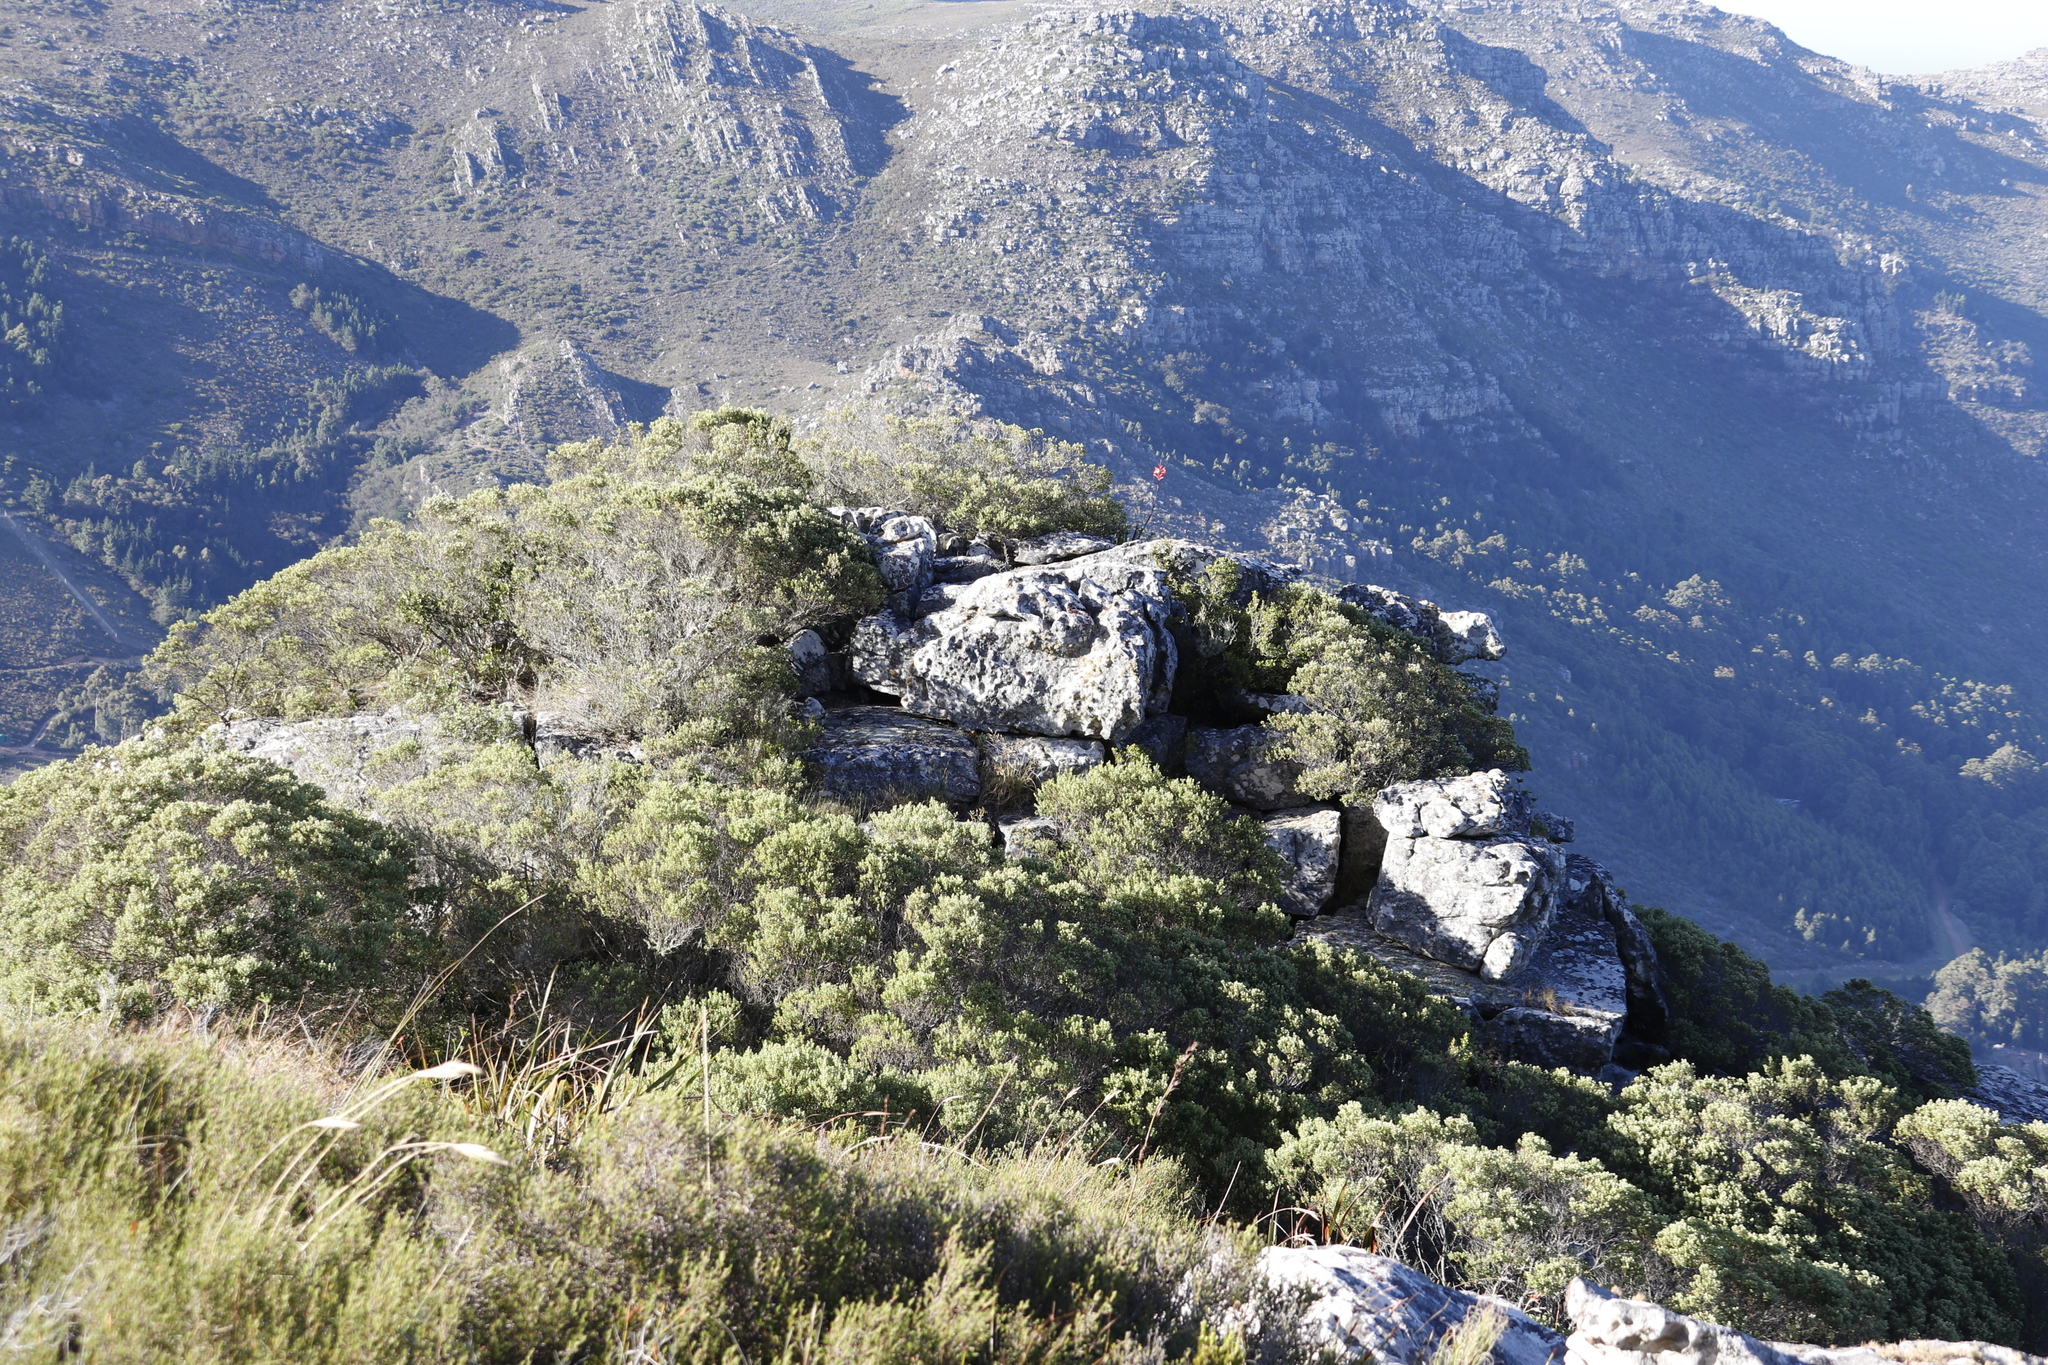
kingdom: Plantae
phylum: Tracheophyta
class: Magnoliopsida
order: Rosales
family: Rhamnaceae
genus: Phylica
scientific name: Phylica buxifolia
